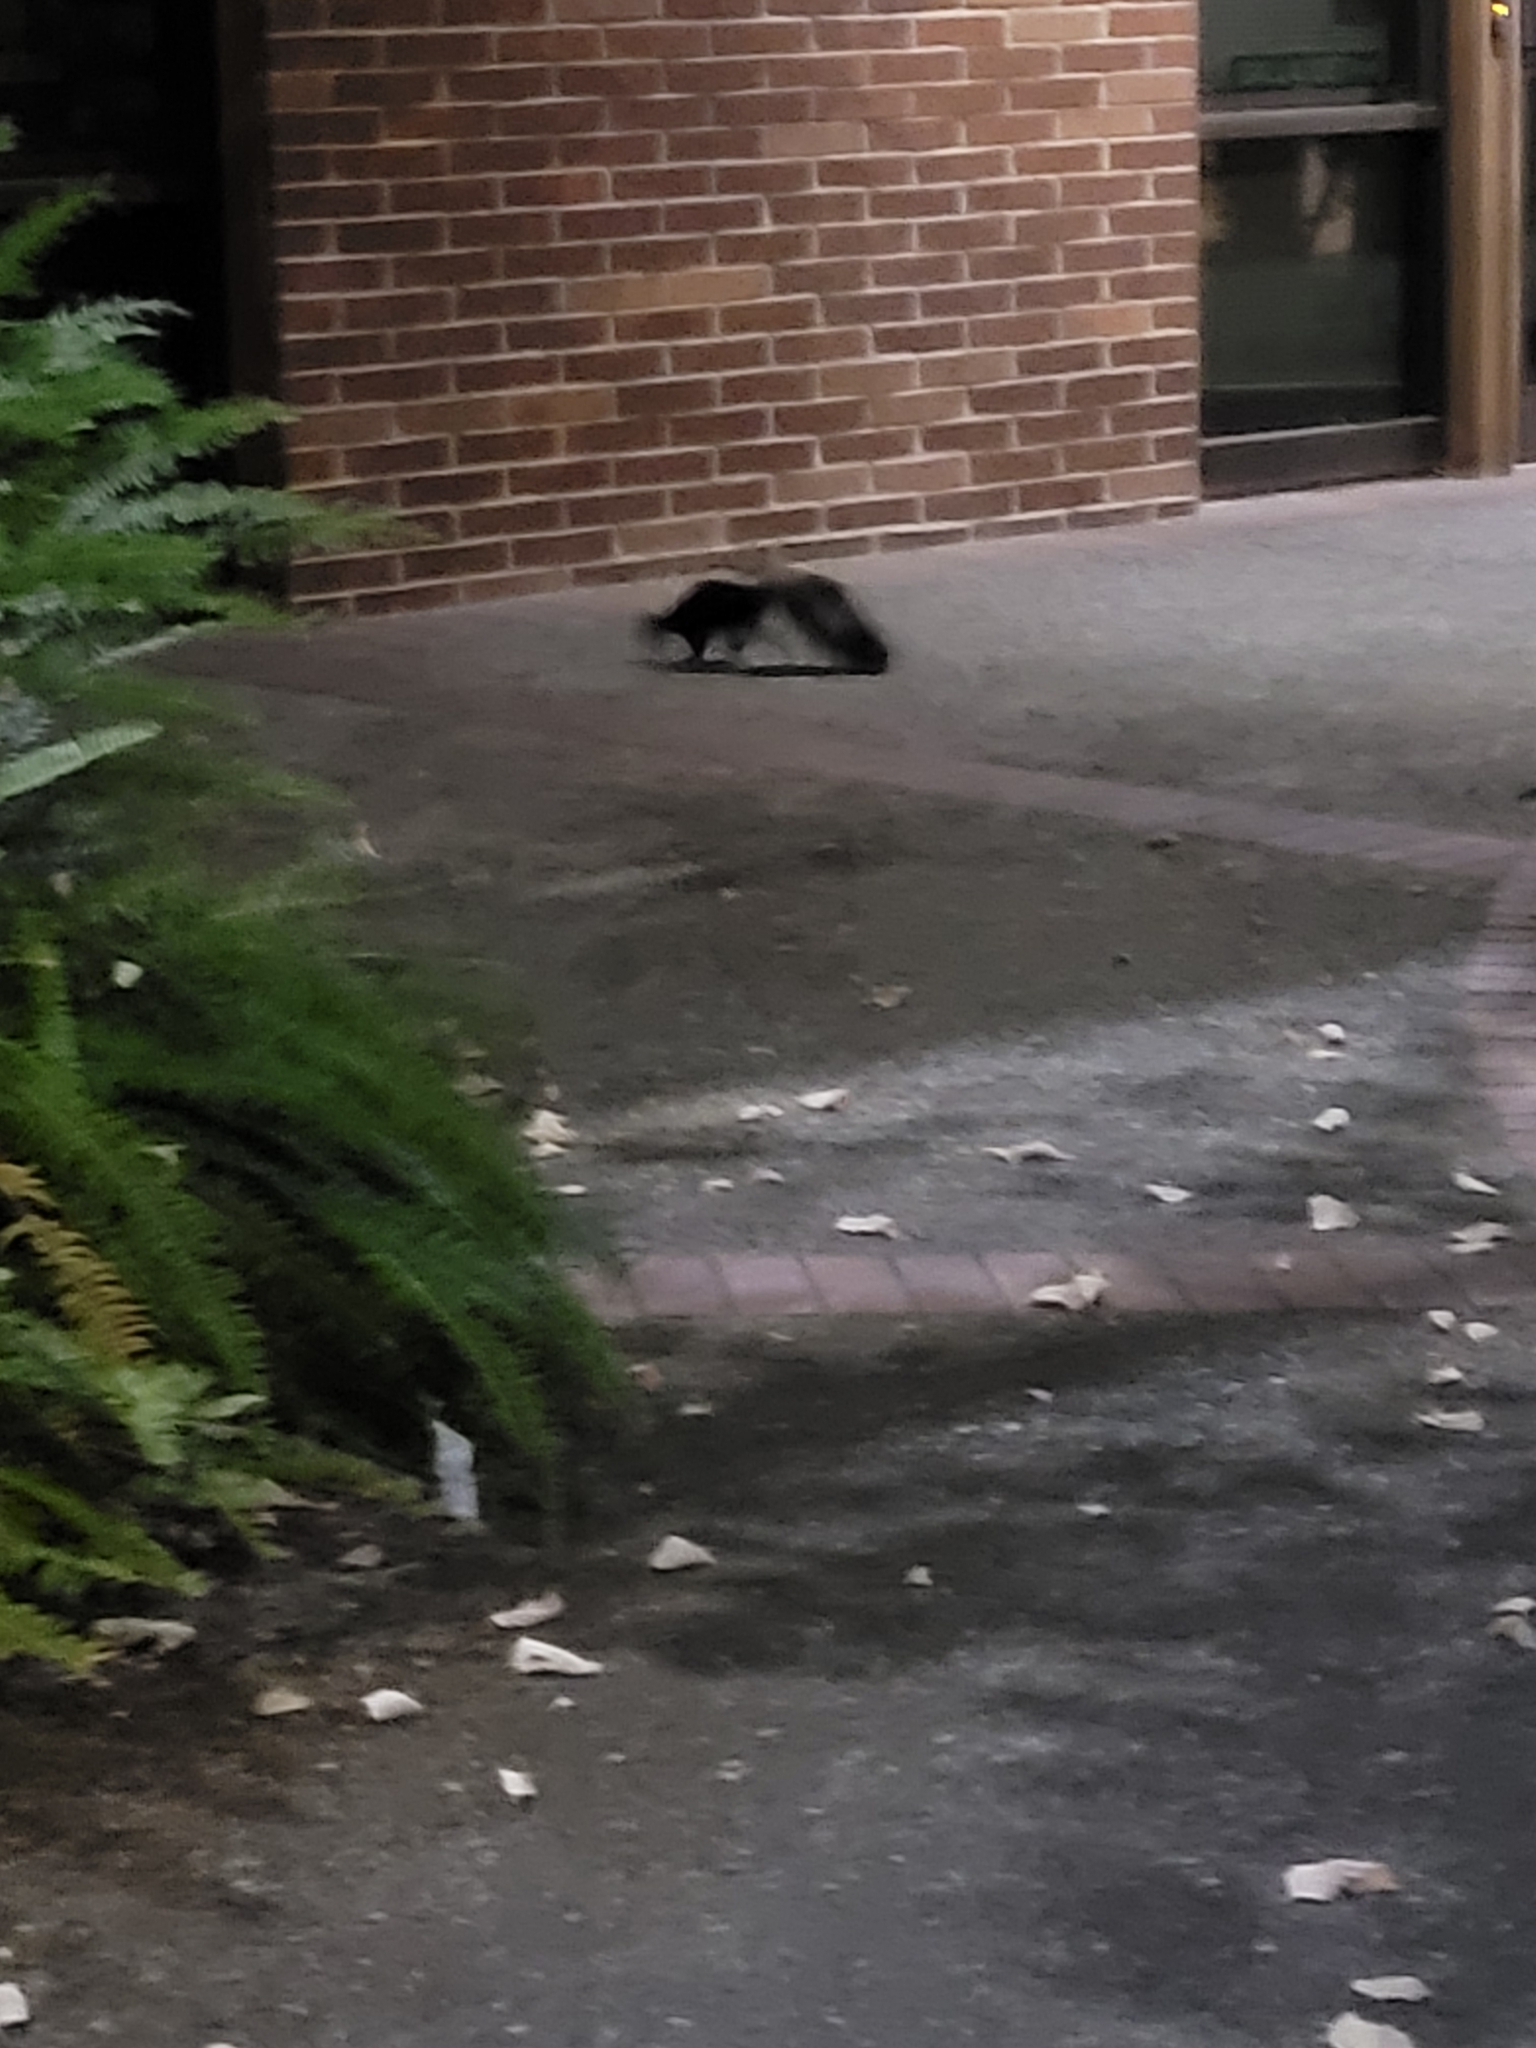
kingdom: Animalia
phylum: Chordata
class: Mammalia
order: Carnivora
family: Mephitidae
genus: Mephitis
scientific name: Mephitis mephitis
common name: Striped skunk
